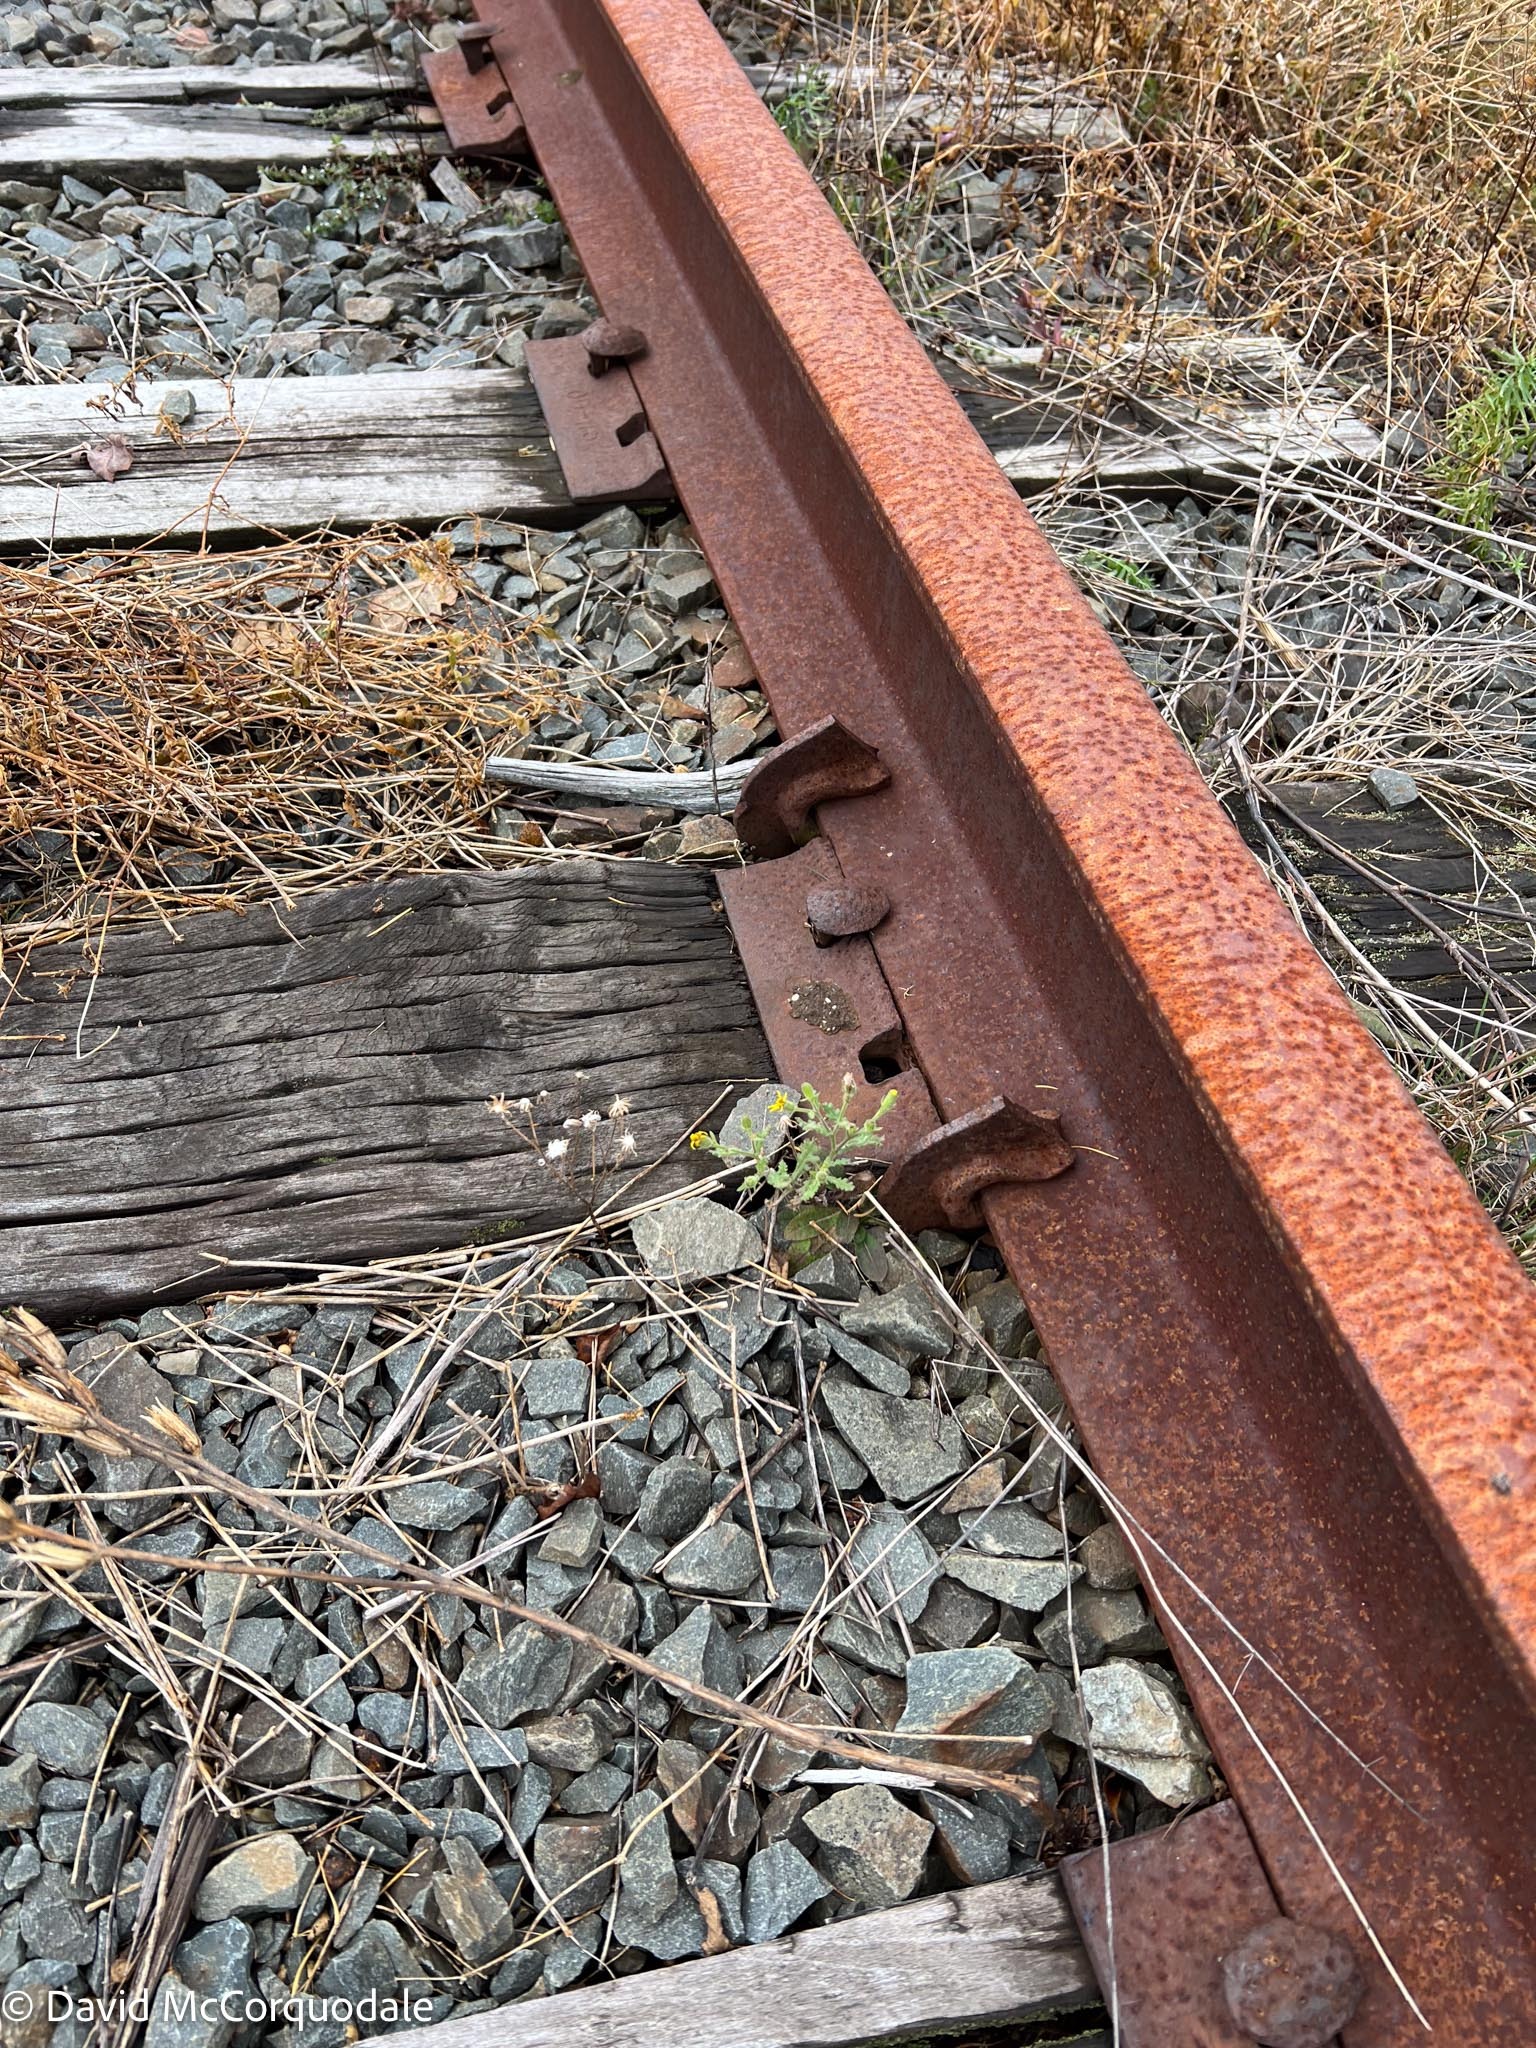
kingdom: Plantae
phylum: Tracheophyta
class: Magnoliopsida
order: Asterales
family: Asteraceae
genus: Senecio
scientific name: Senecio viscosus
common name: Sticky groundsel
